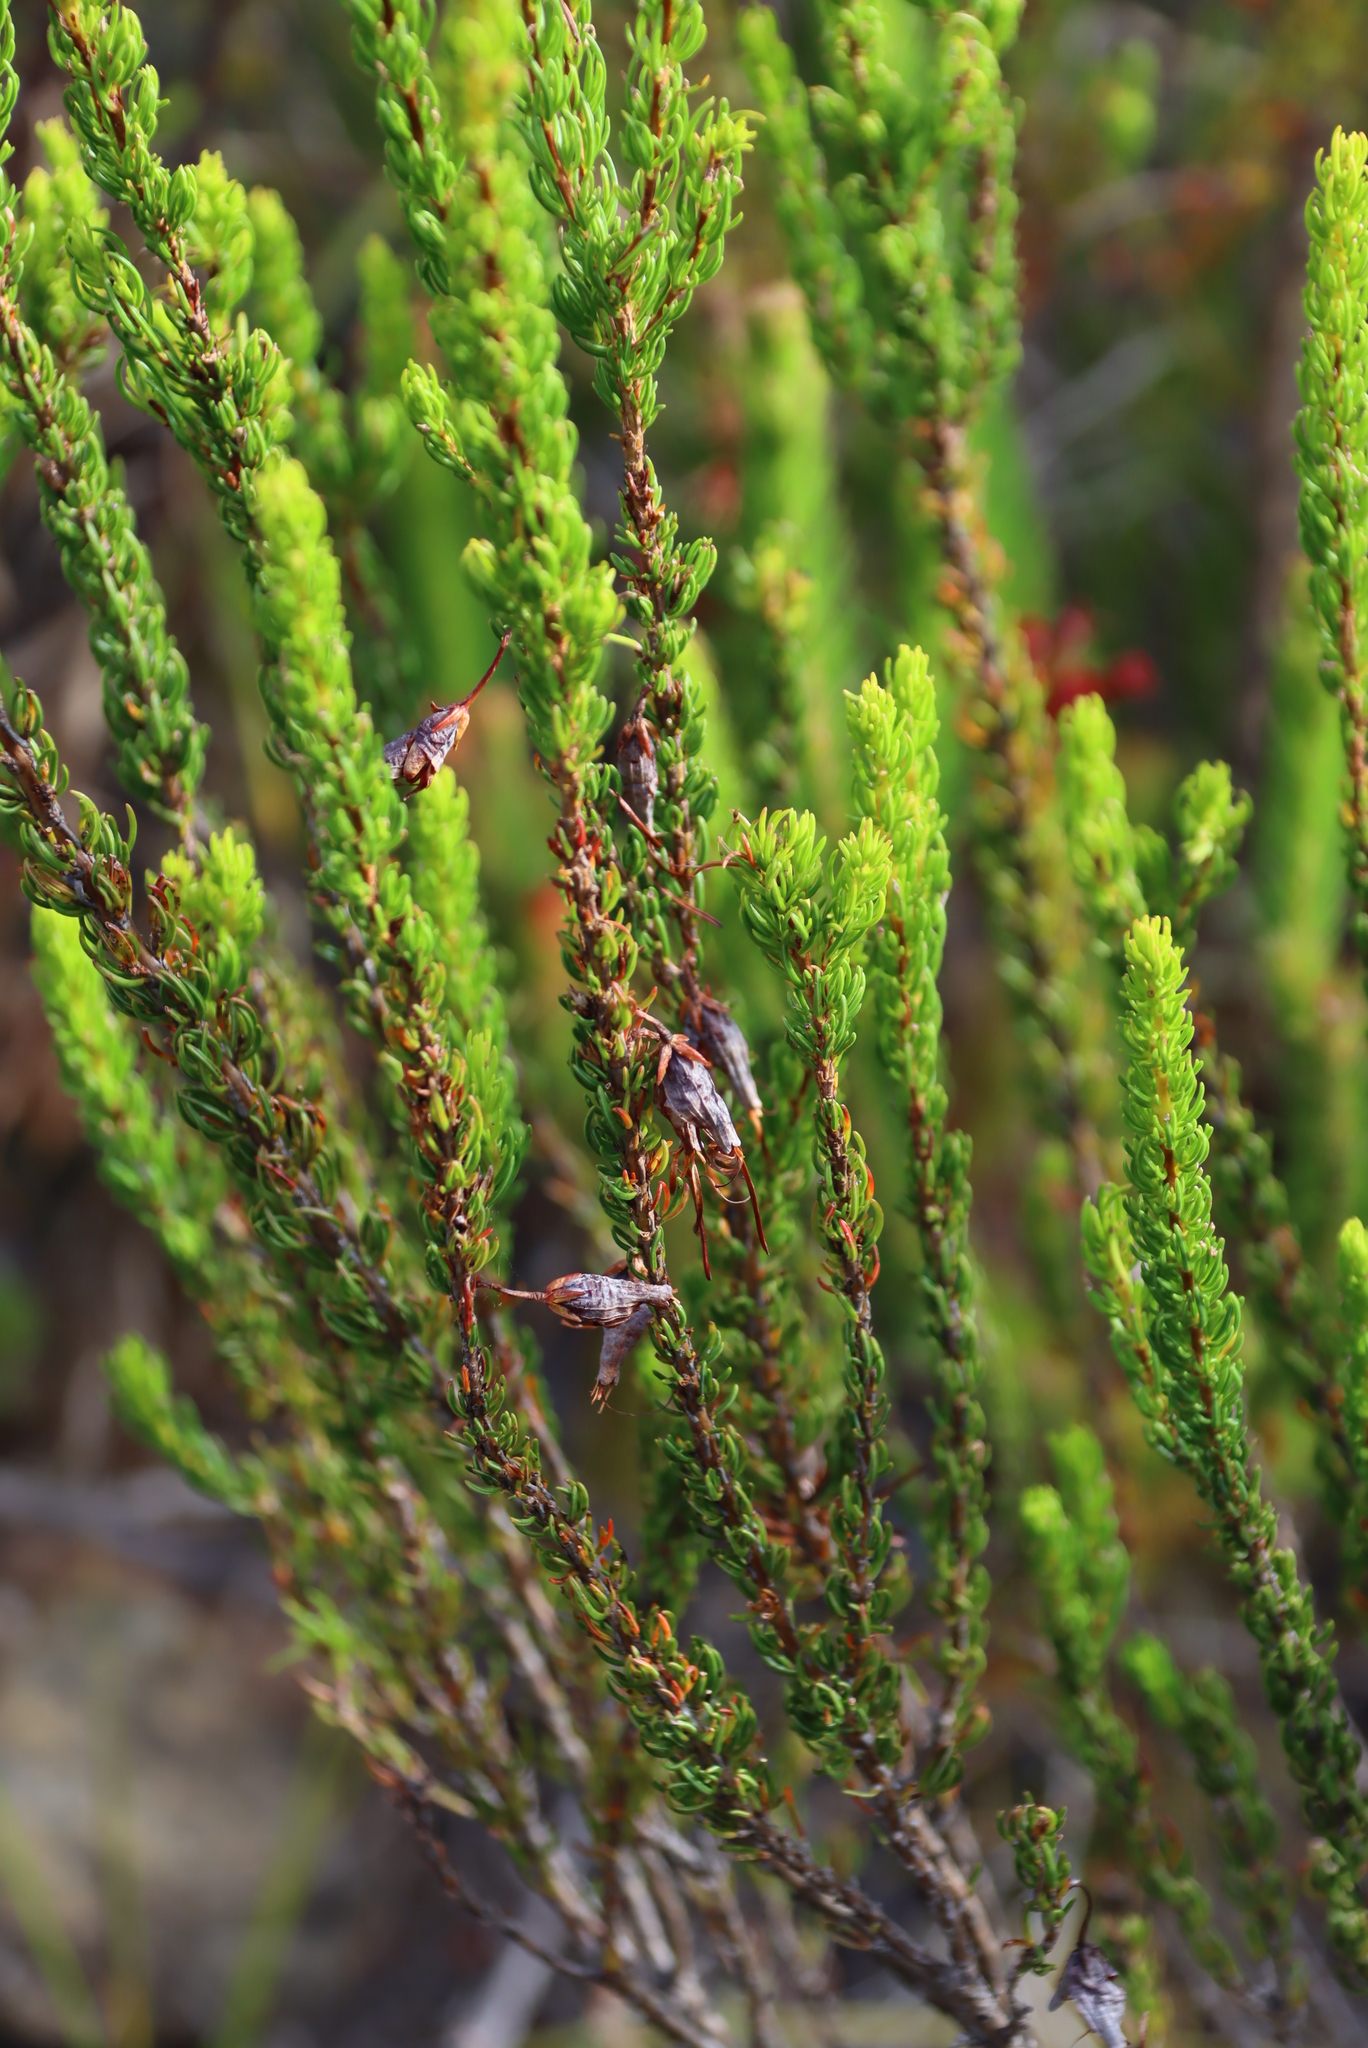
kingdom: Plantae
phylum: Tracheophyta
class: Magnoliopsida
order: Ericales
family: Ericaceae
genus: Erica
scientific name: Erica plukenetii
